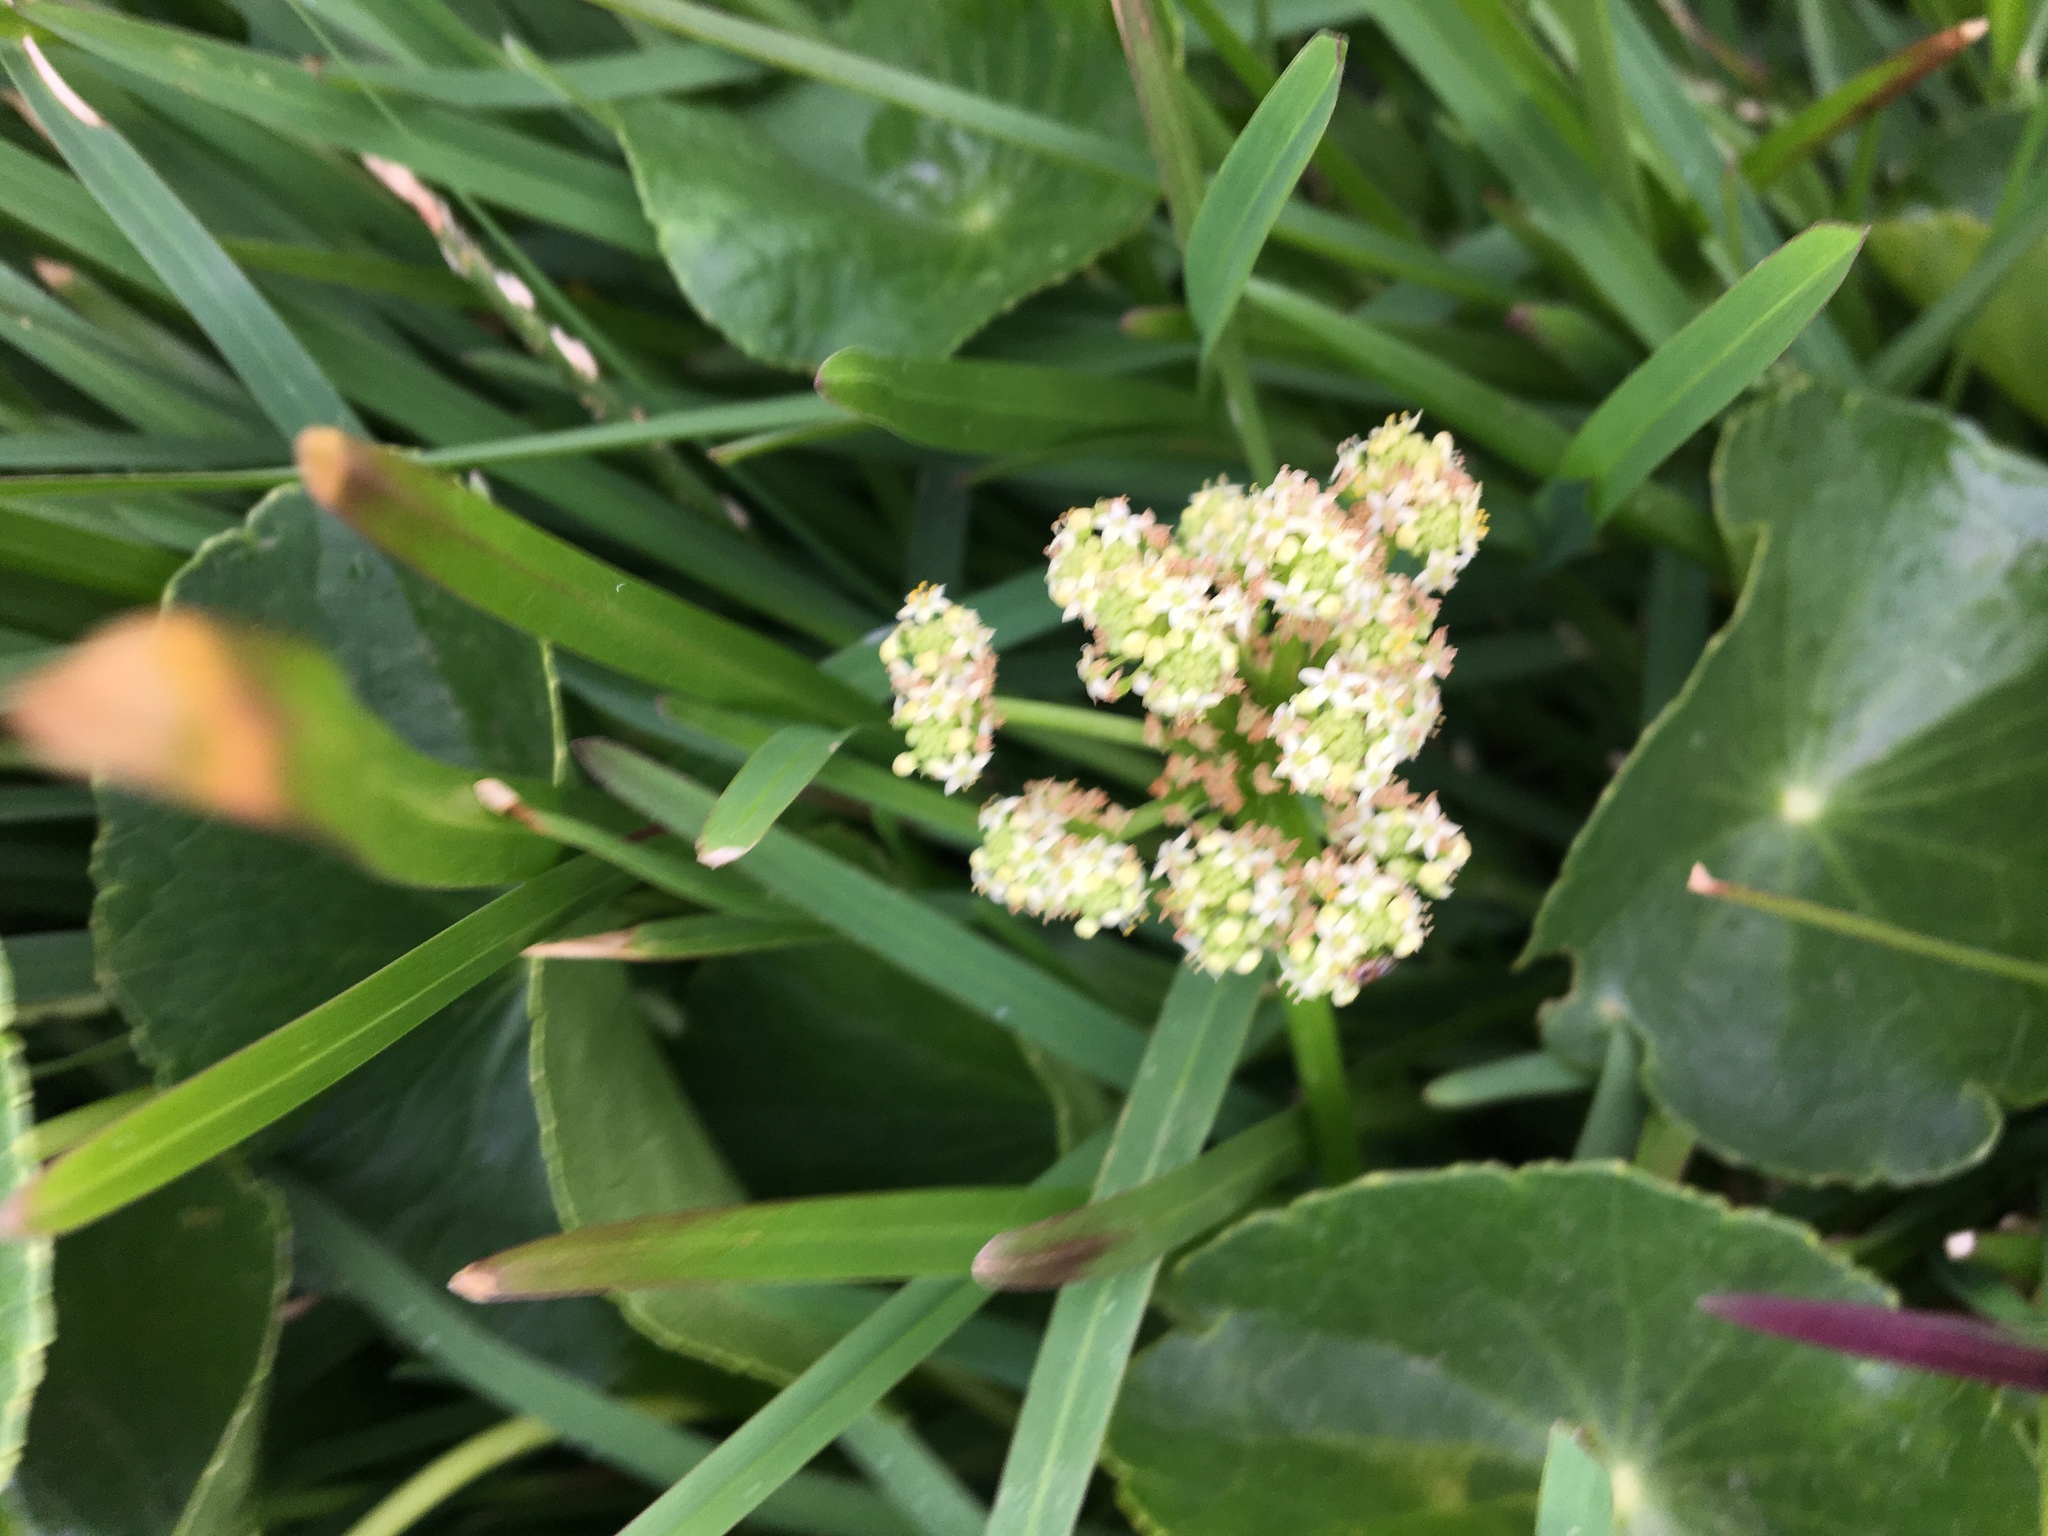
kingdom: Plantae
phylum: Tracheophyta
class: Magnoliopsida
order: Apiales
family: Araliaceae
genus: Hydrocotyle
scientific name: Hydrocotyle bonariensis
